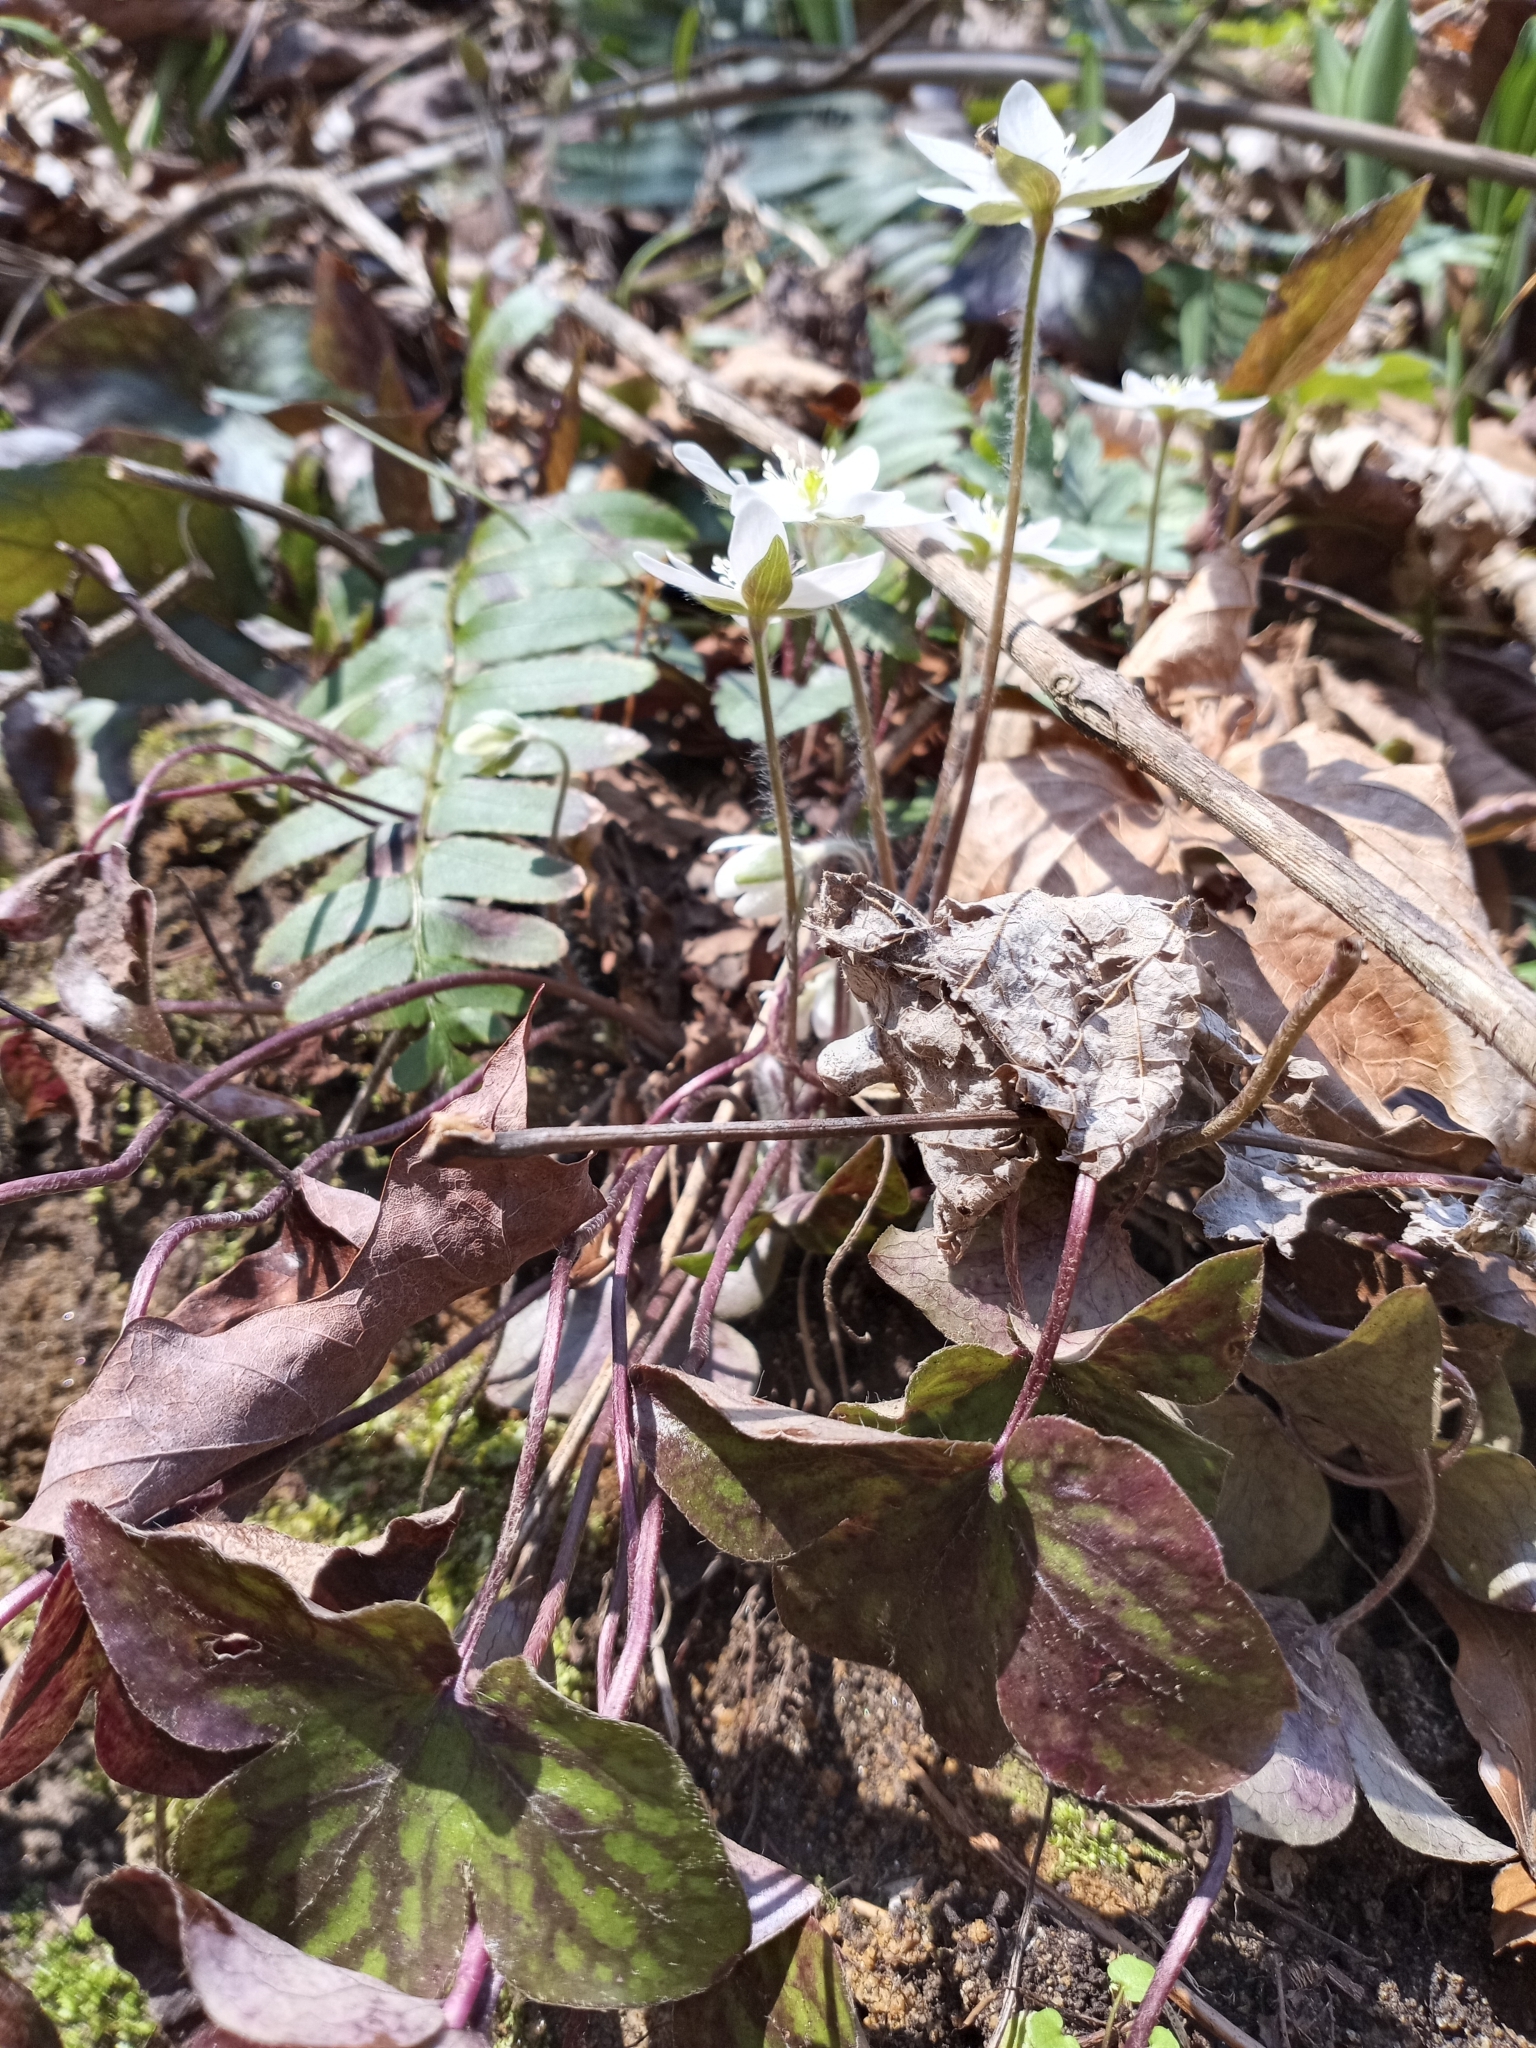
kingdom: Plantae
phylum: Tracheophyta
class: Magnoliopsida
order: Ranunculales
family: Ranunculaceae
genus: Hepatica
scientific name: Hepatica acutiloba
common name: Sharp-lobed hepatica
